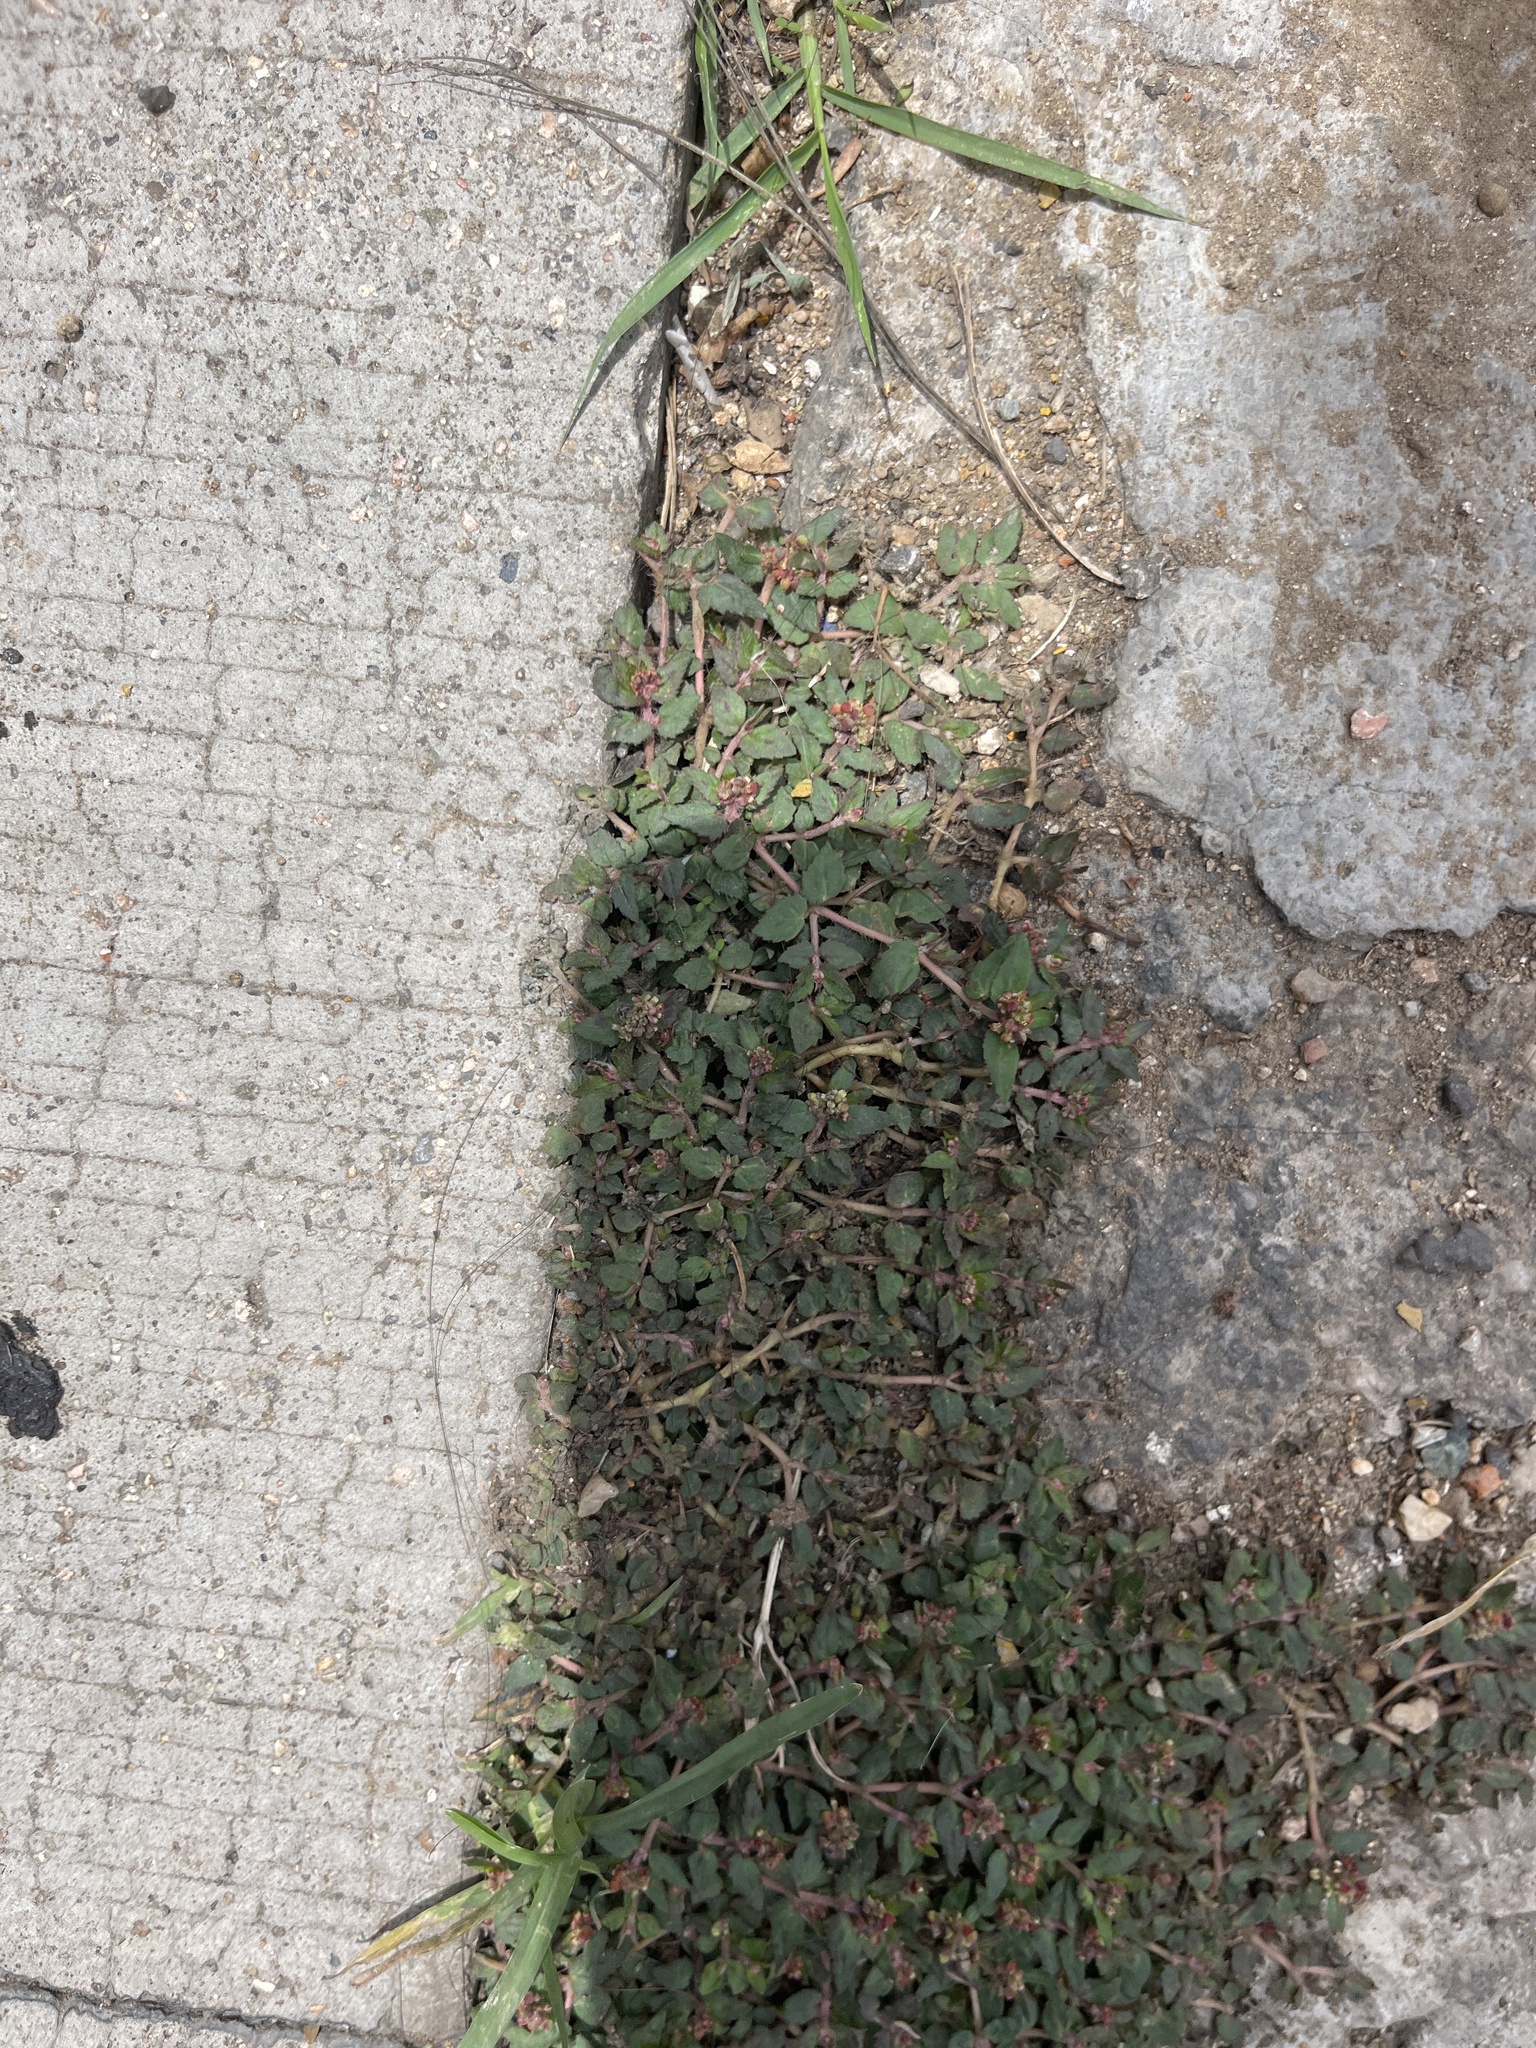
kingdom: Plantae
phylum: Tracheophyta
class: Magnoliopsida
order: Malpighiales
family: Euphorbiaceae
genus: Euphorbia
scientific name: Euphorbia ophthalmica
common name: Florida hammock sandmat
